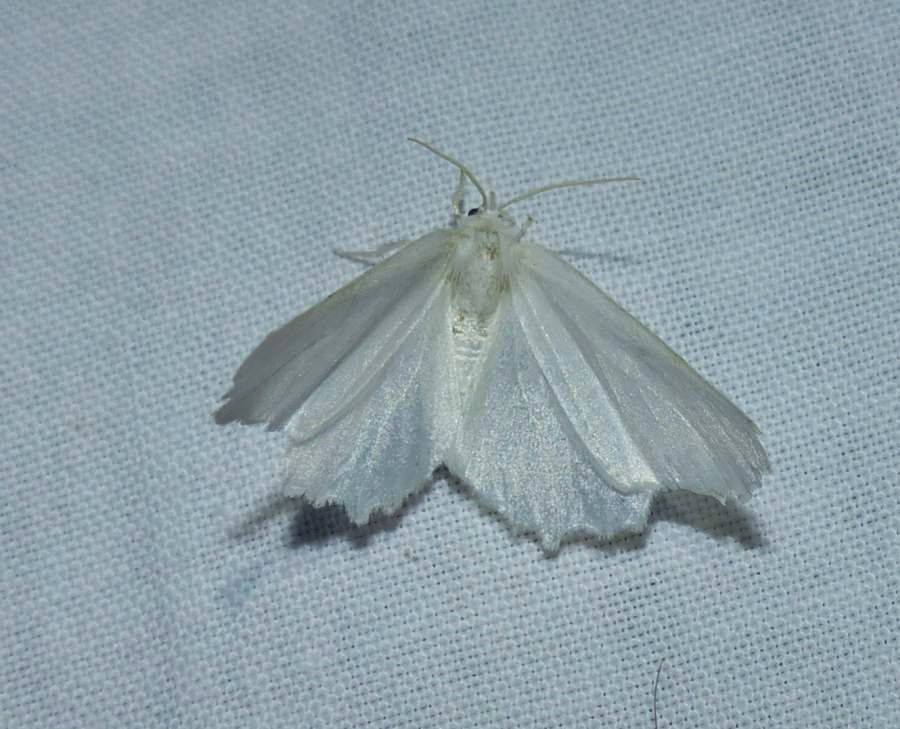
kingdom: Animalia
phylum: Arthropoda
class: Insecta
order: Lepidoptera
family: Geometridae
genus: Ennomos
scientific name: Ennomos subsignaria
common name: Elm spanworm
